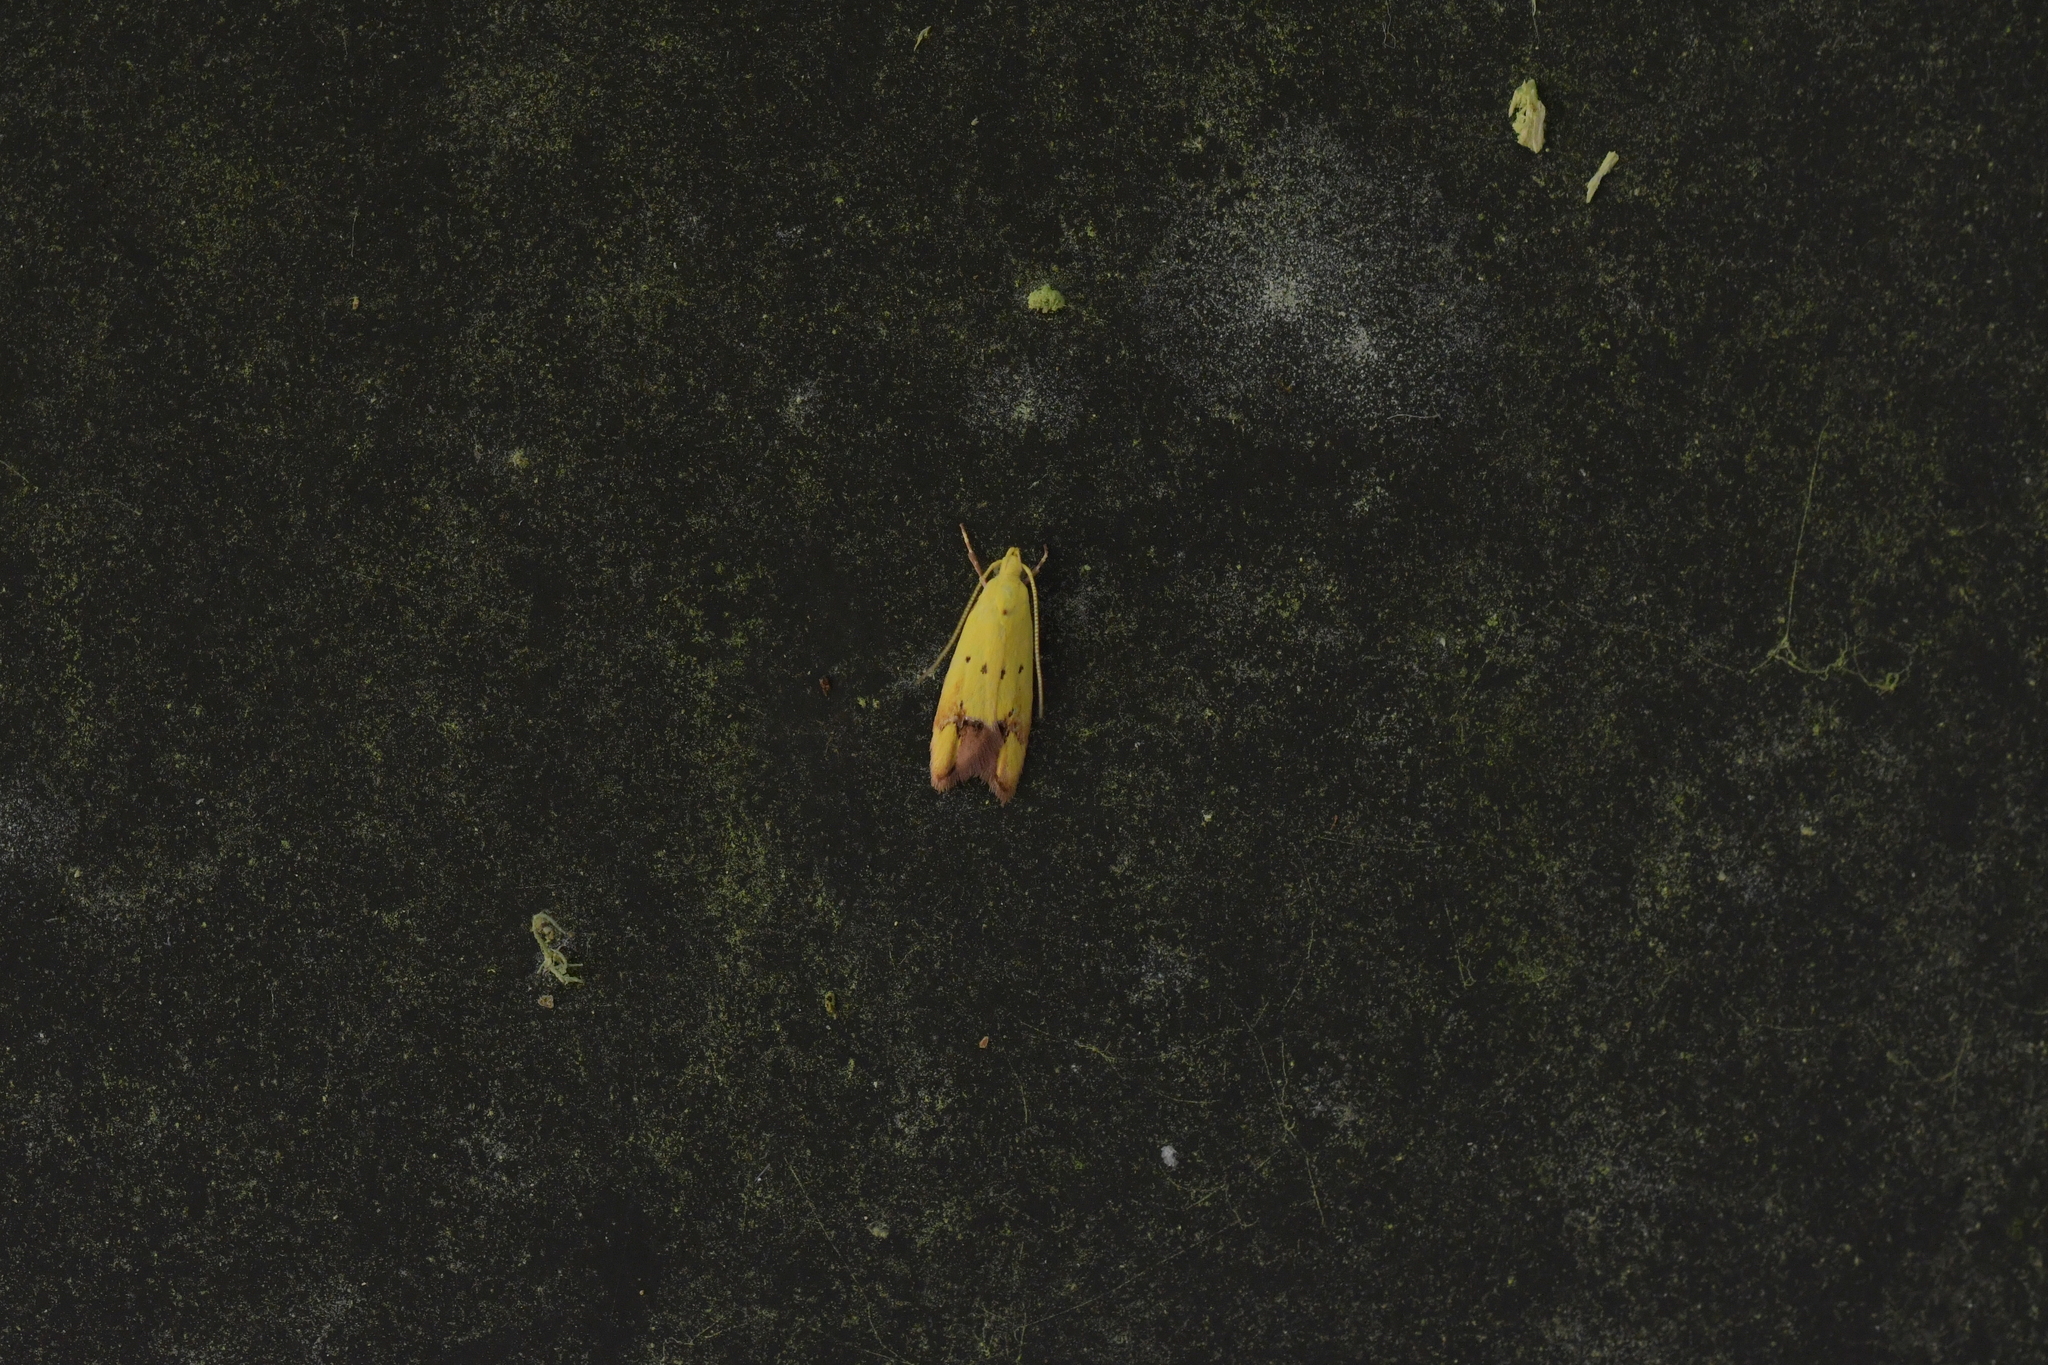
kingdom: Animalia
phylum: Arthropoda
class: Insecta
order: Lepidoptera
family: Oecophoridae
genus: Gymnobathra
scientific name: Gymnobathra flavidella
